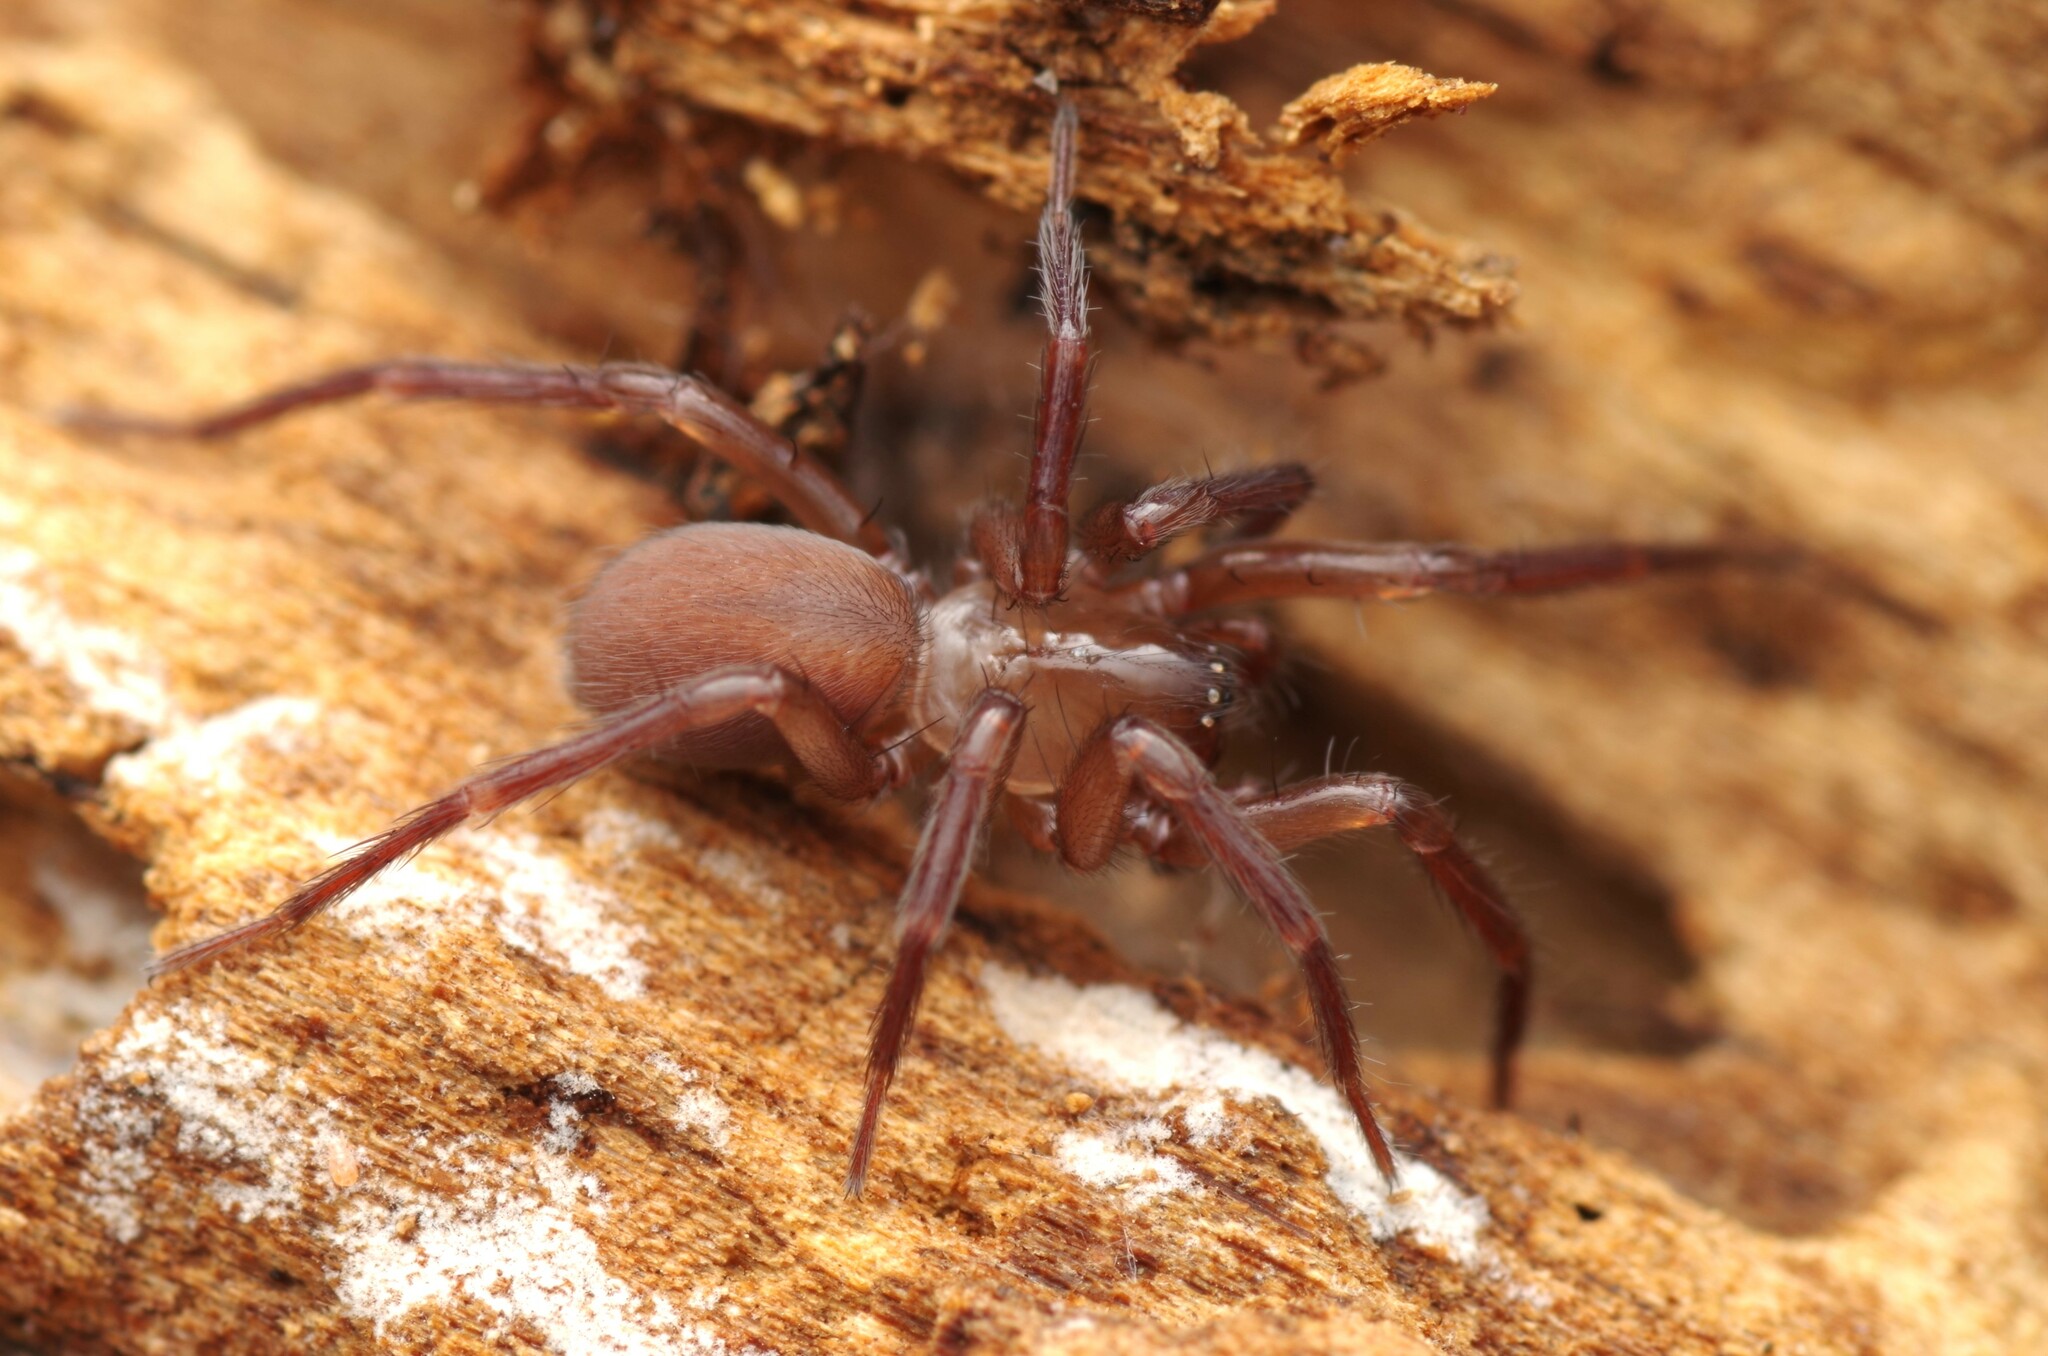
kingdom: Animalia
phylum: Arthropoda
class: Arachnida
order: Araneae
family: Hahniidae
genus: Cicurina
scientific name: Cicurina cicur
